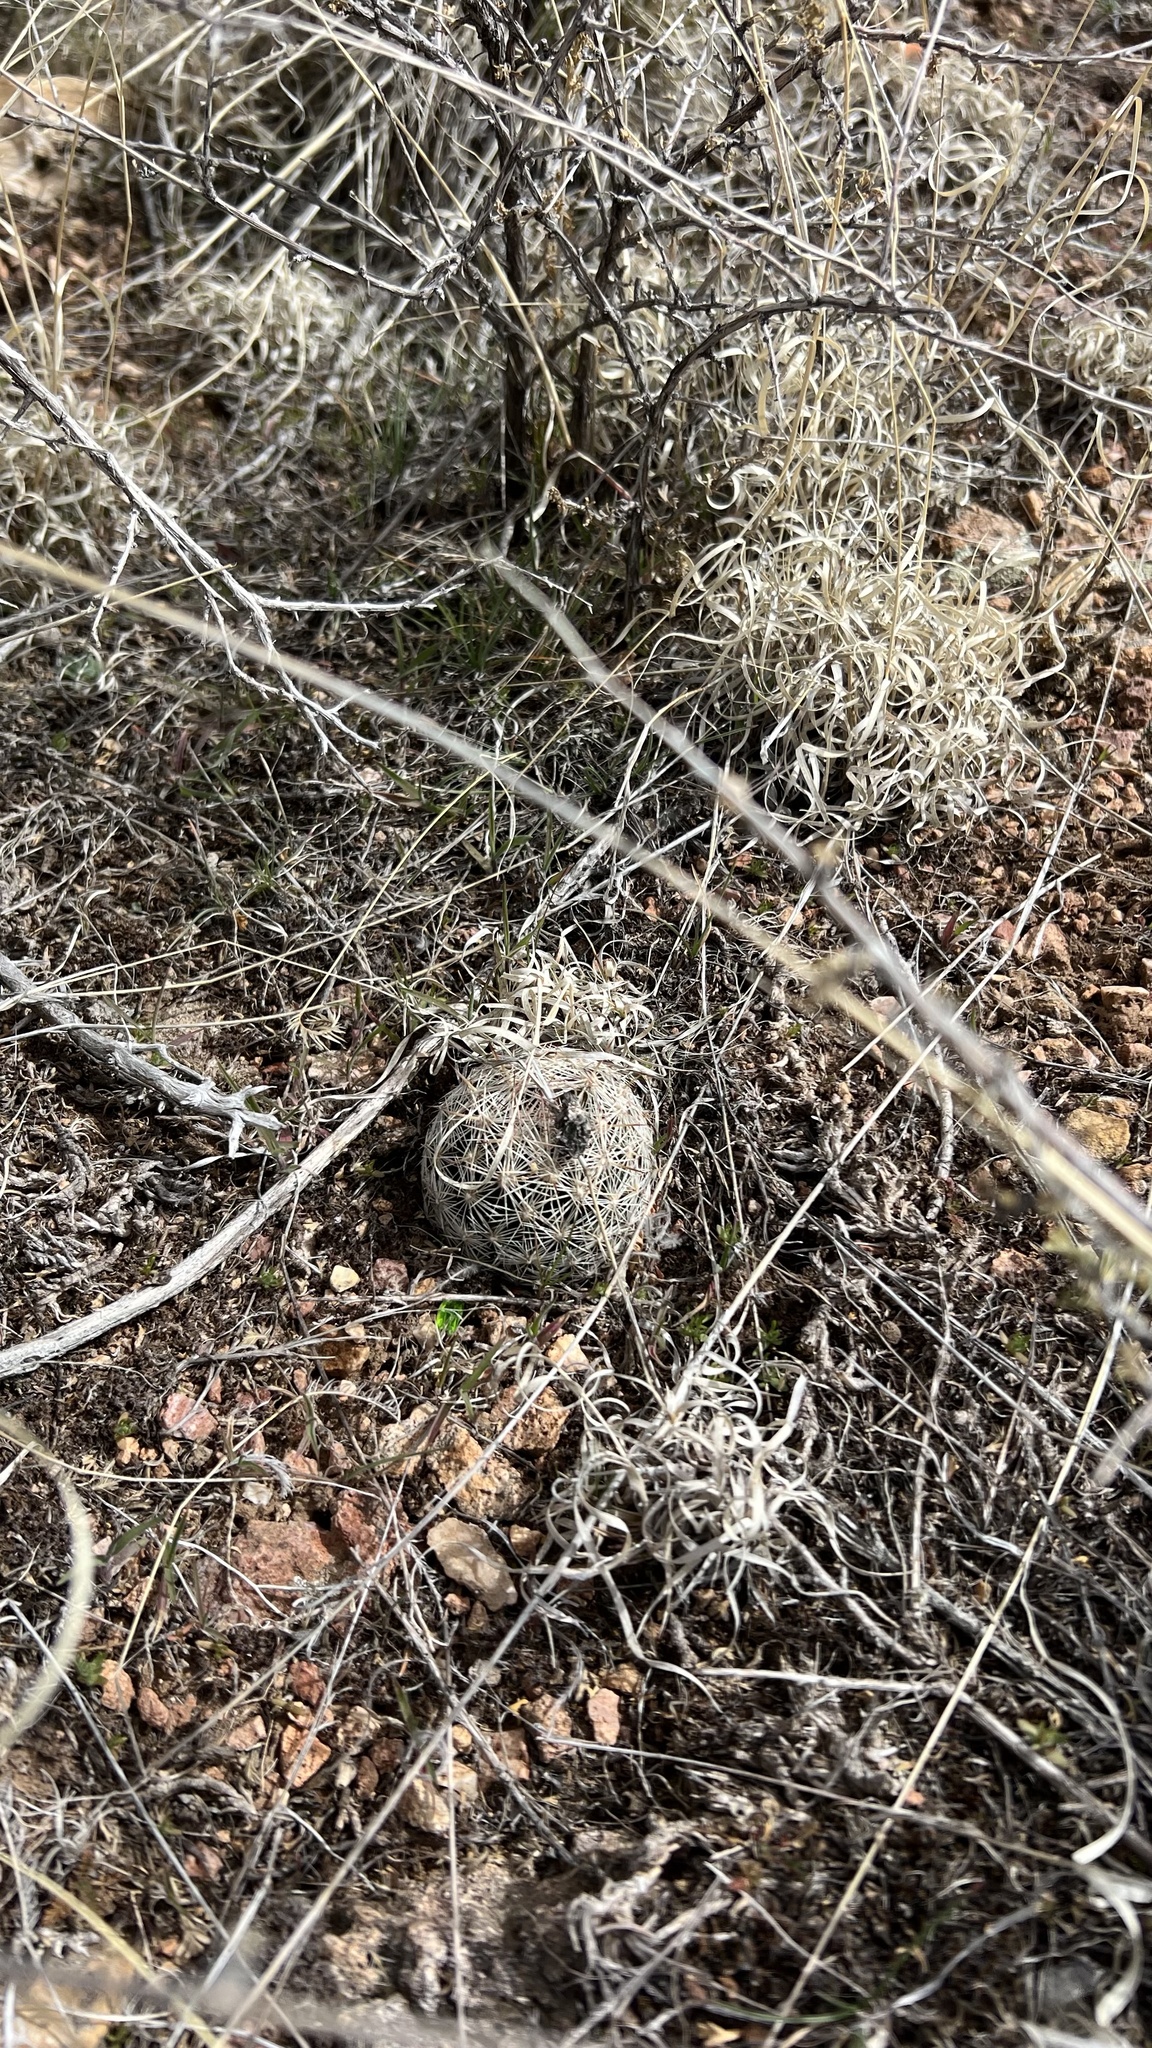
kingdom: Plantae
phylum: Tracheophyta
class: Magnoliopsida
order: Caryophyllales
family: Cactaceae
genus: Pelecyphora
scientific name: Pelecyphora vivipara
